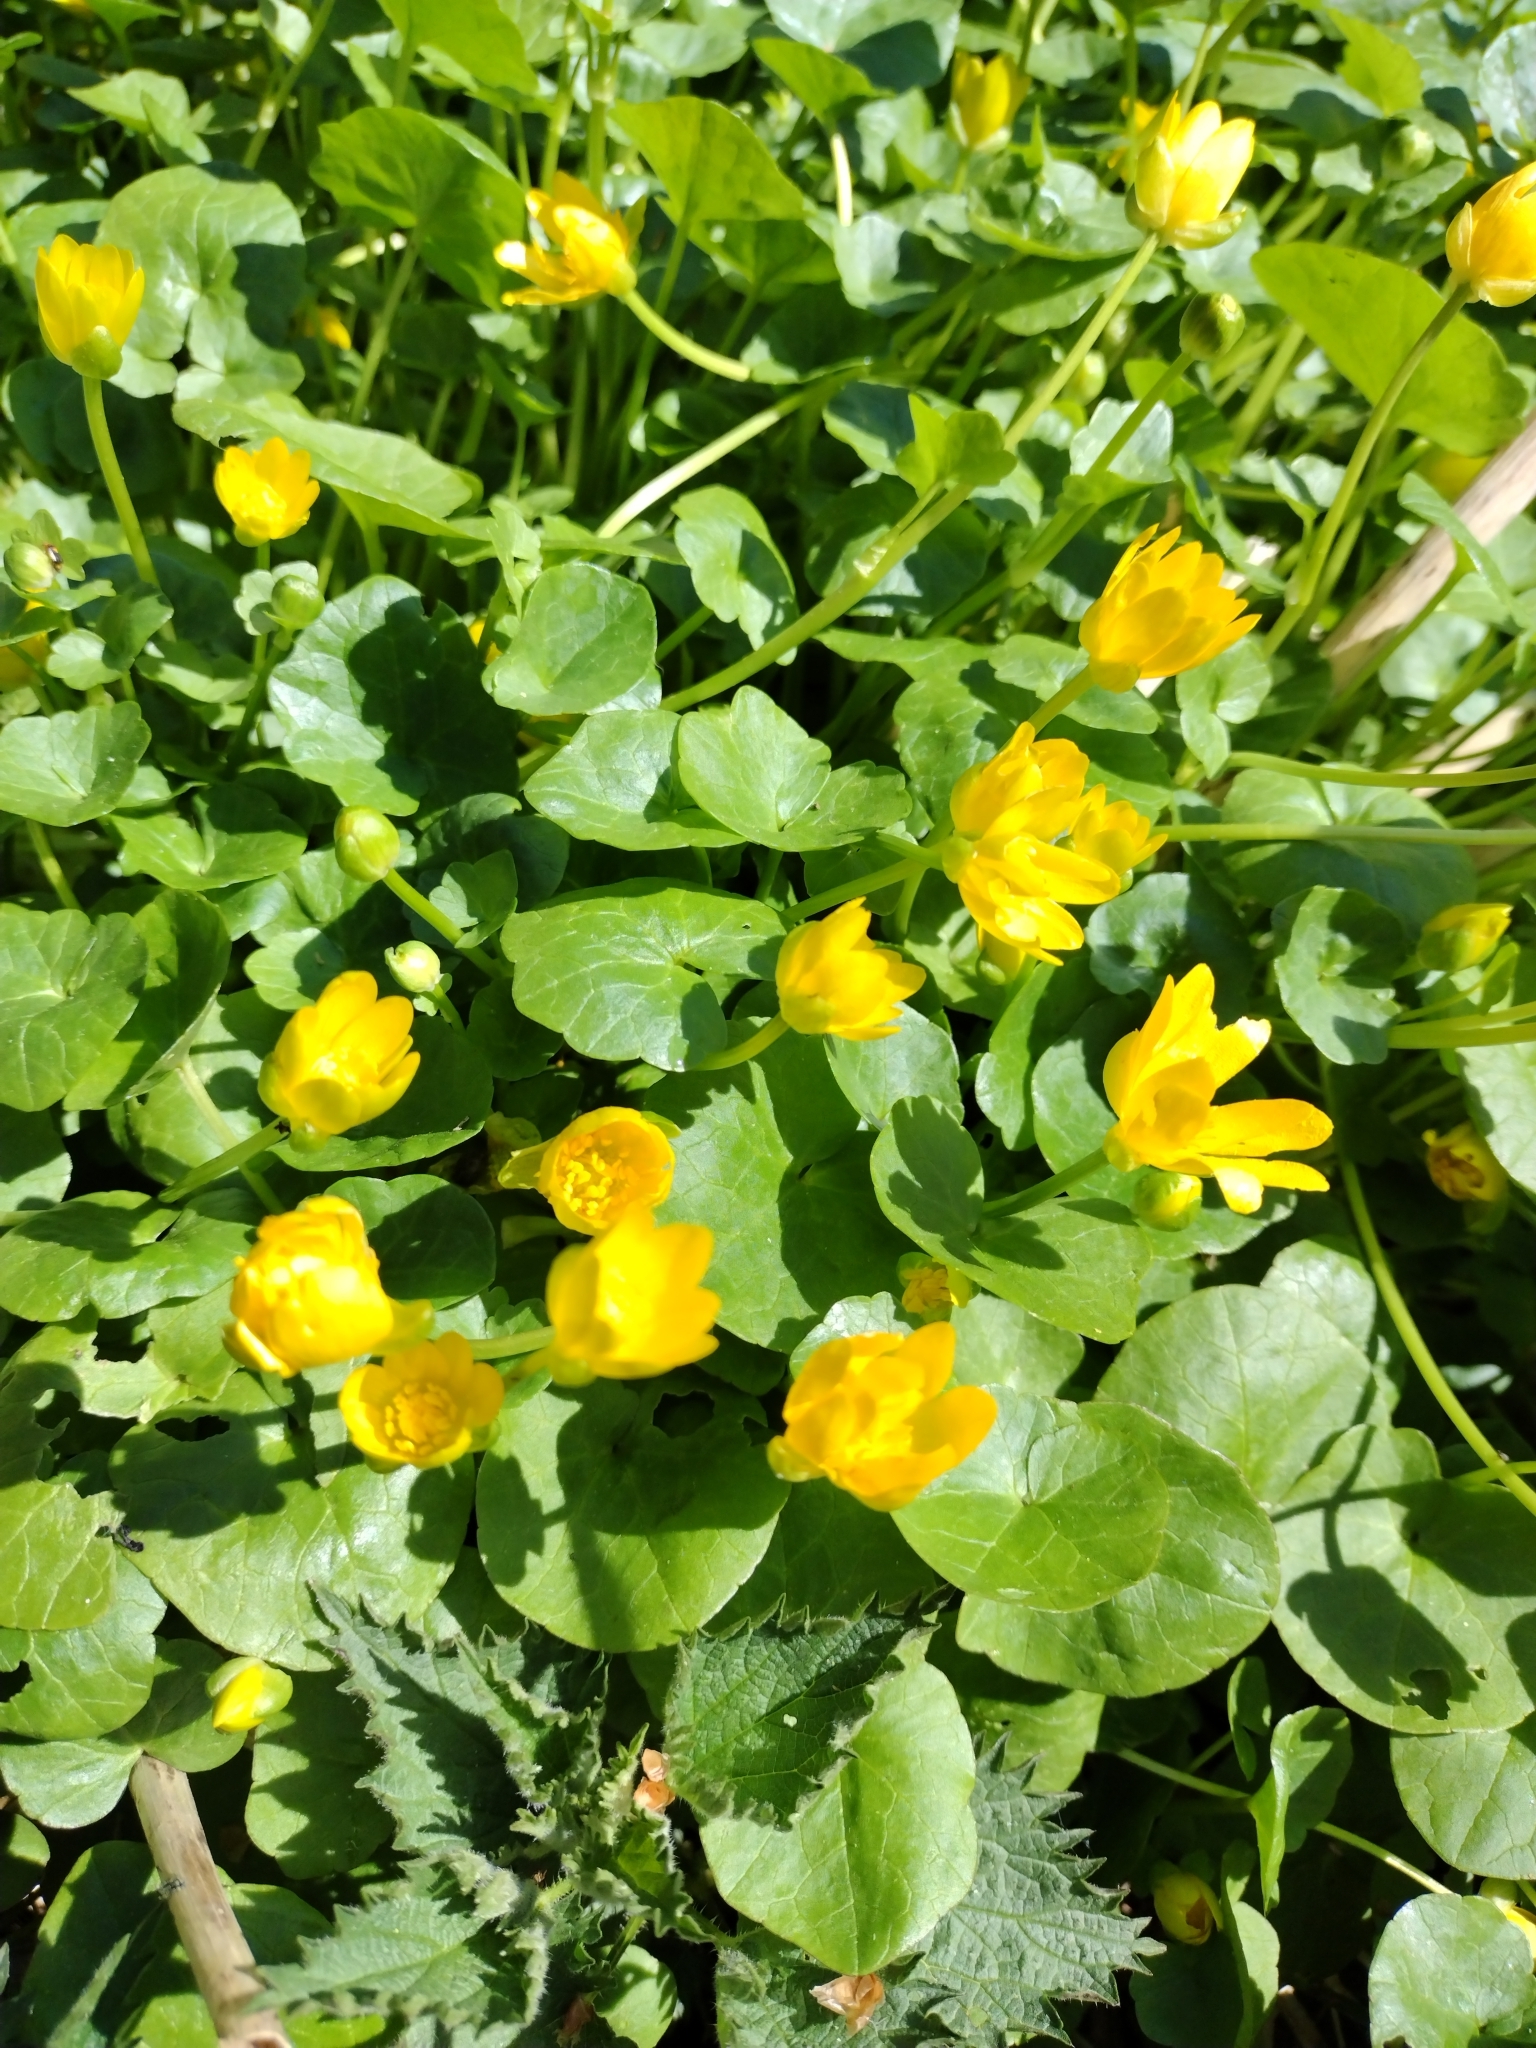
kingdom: Plantae
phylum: Tracheophyta
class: Magnoliopsida
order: Ranunculales
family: Ranunculaceae
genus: Ficaria
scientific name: Ficaria verna
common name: Lesser celandine
